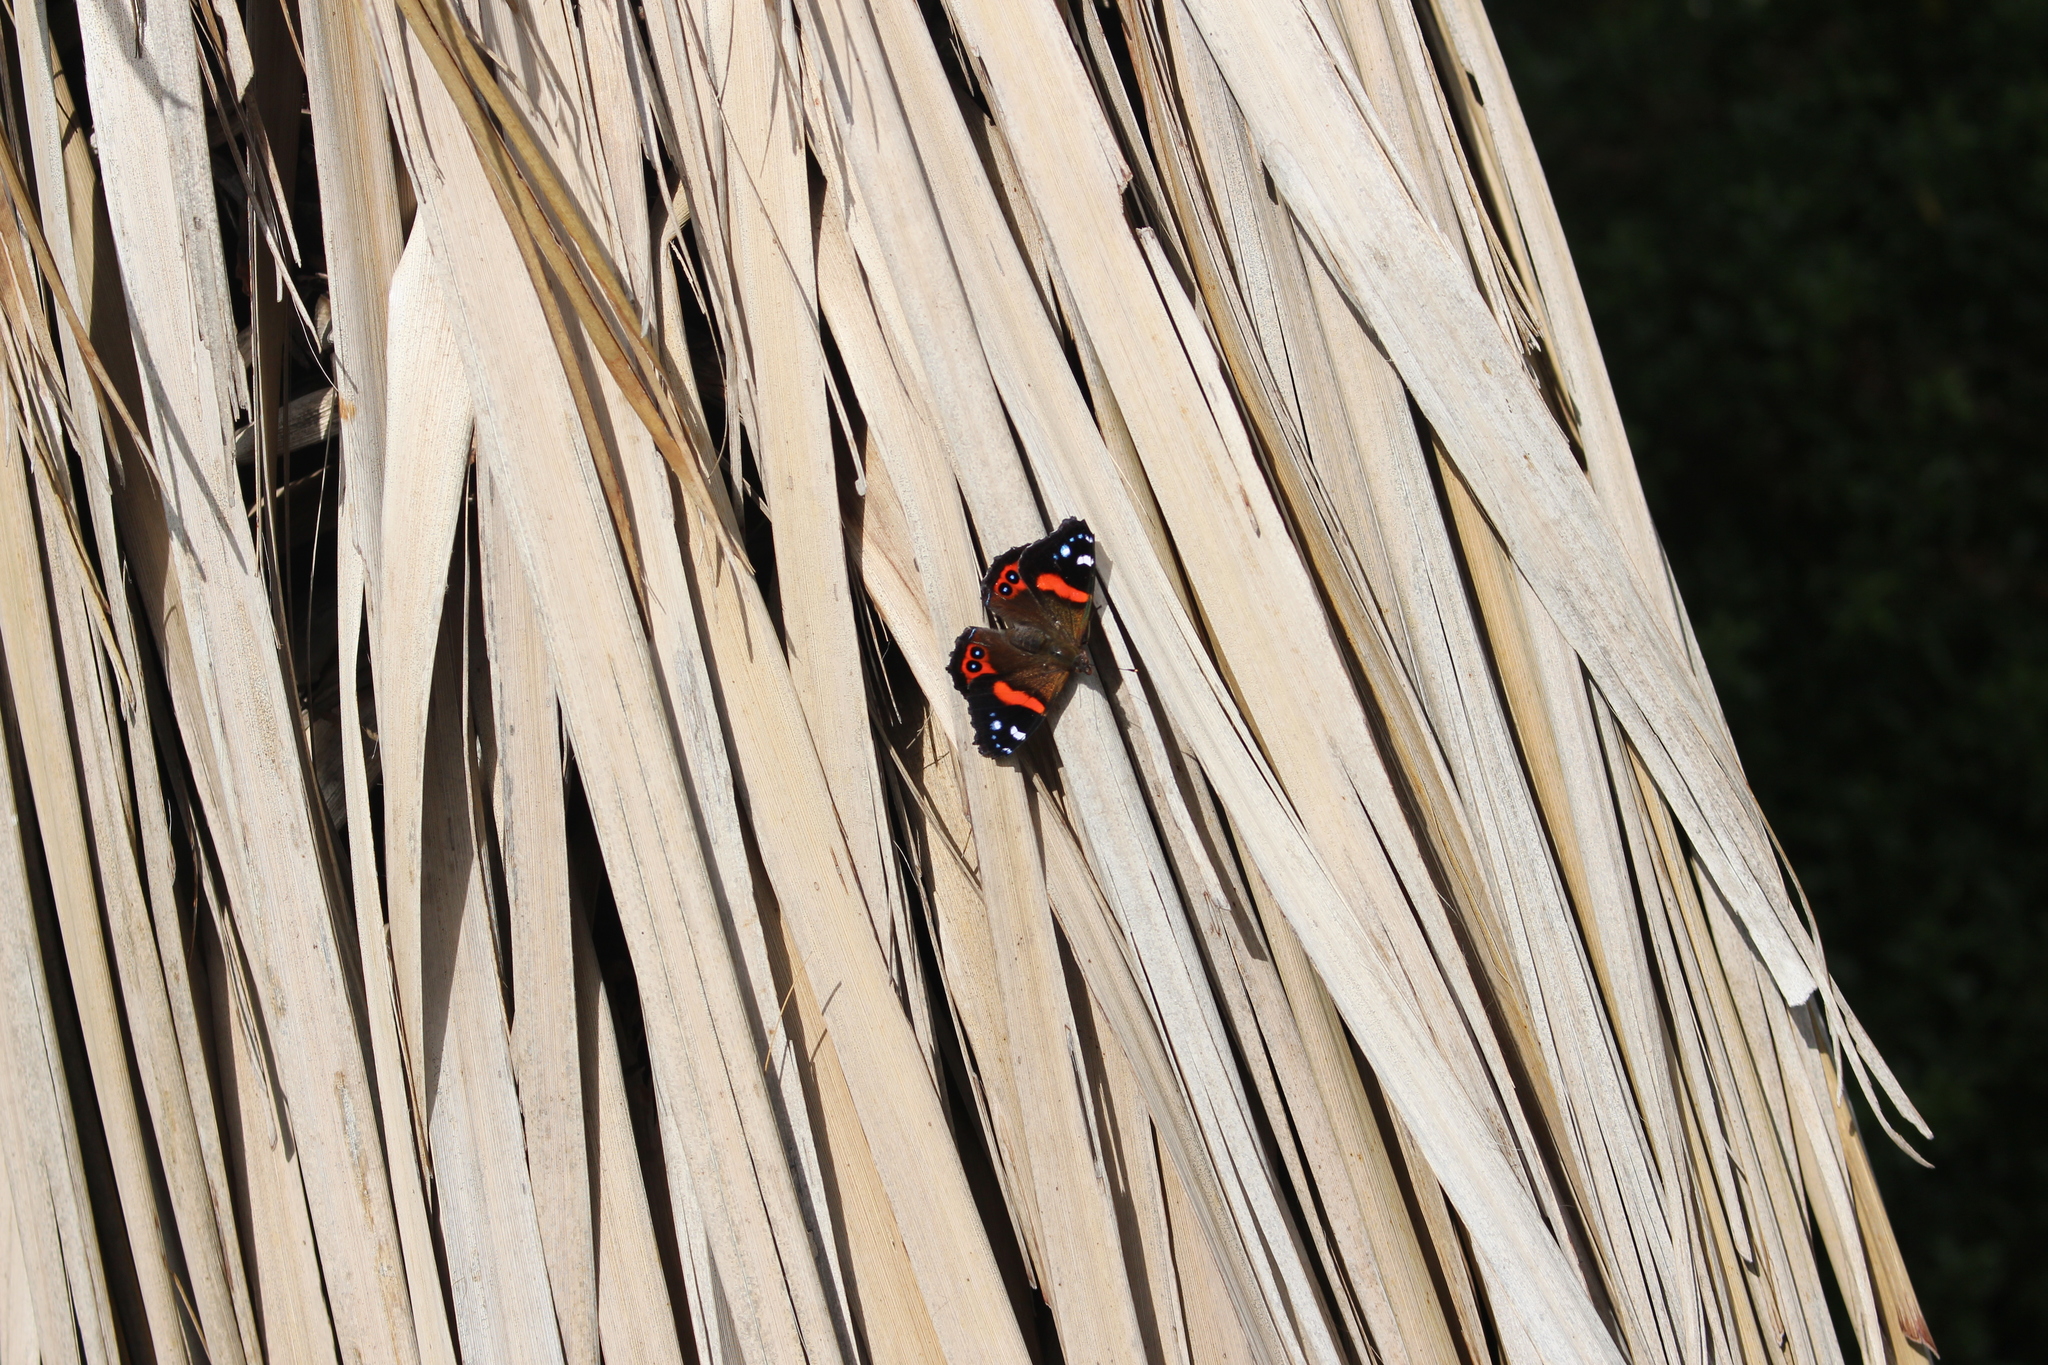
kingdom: Animalia
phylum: Arthropoda
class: Insecta
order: Lepidoptera
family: Nymphalidae
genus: Vanessa
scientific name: Vanessa gonerilla
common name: New zealand red admiral
